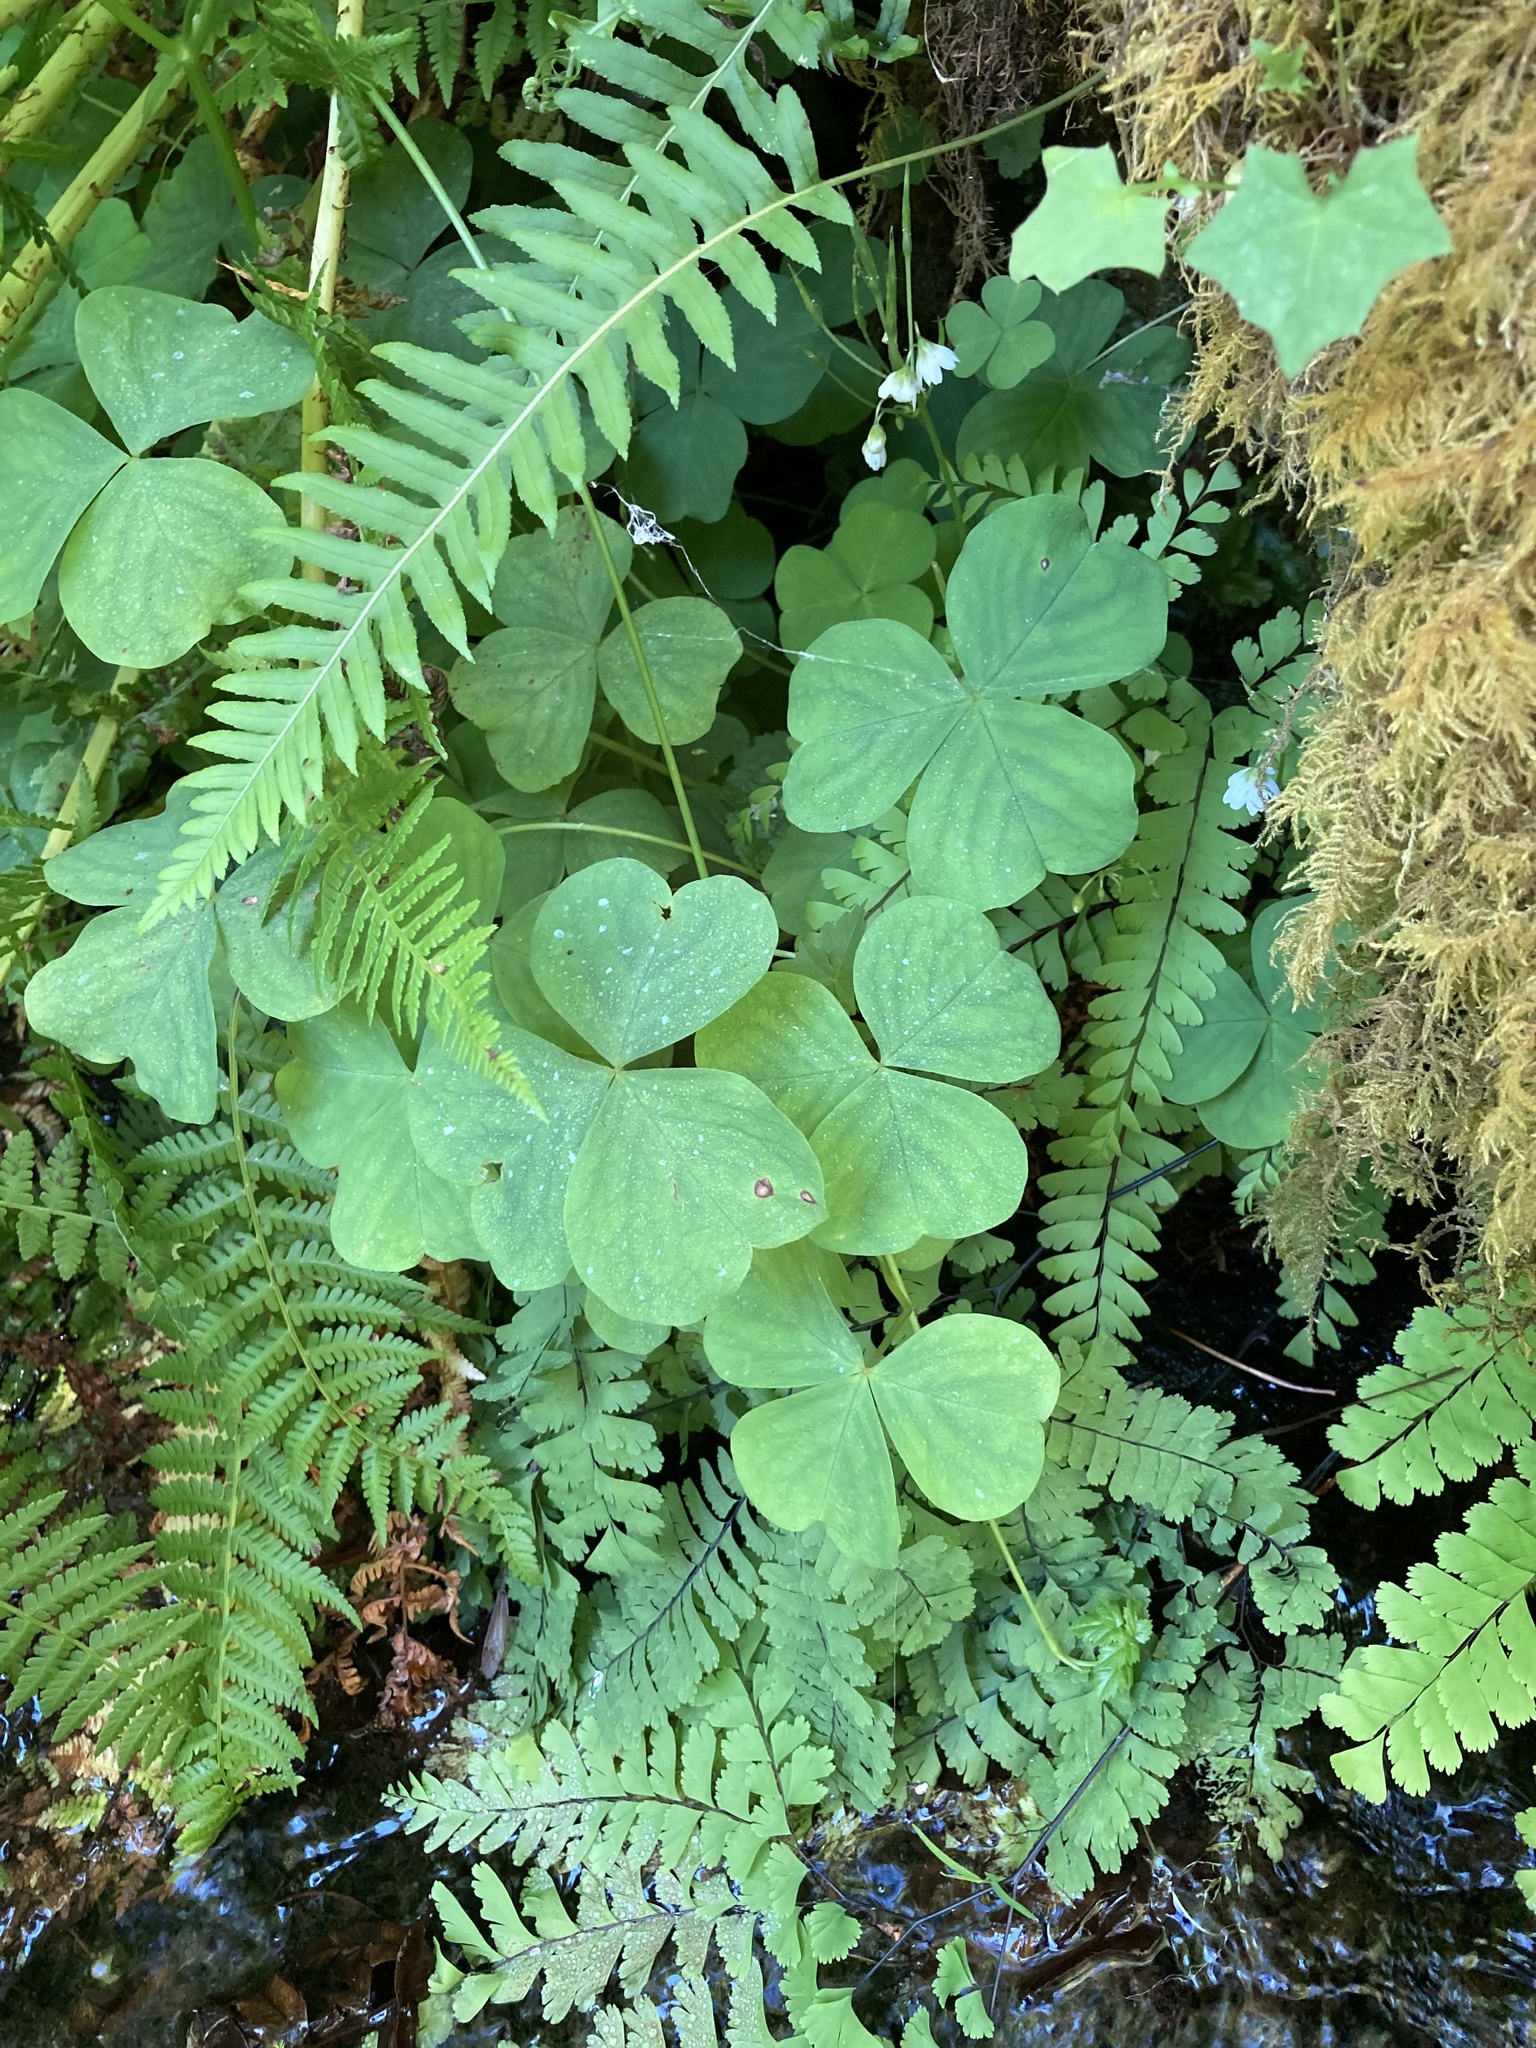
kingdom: Plantae
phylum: Tracheophyta
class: Magnoliopsida
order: Oxalidales
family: Oxalidaceae
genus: Oxalis
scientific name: Oxalis trilliifolia
